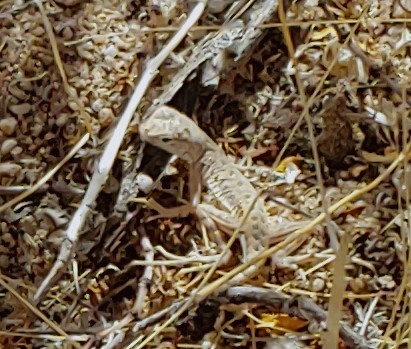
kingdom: Animalia
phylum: Chordata
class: Squamata
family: Phrynosomatidae
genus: Callisaurus
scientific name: Callisaurus draconoides
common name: Zebra-tailed lizard
